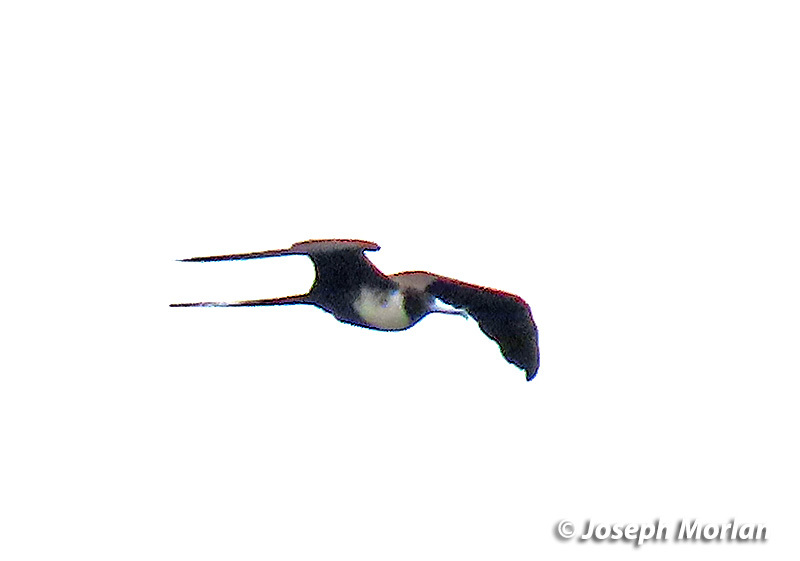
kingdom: Animalia
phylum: Chordata
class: Aves
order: Suliformes
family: Fregatidae
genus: Fregata
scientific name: Fregata magnificens
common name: Magnificent frigatebird
